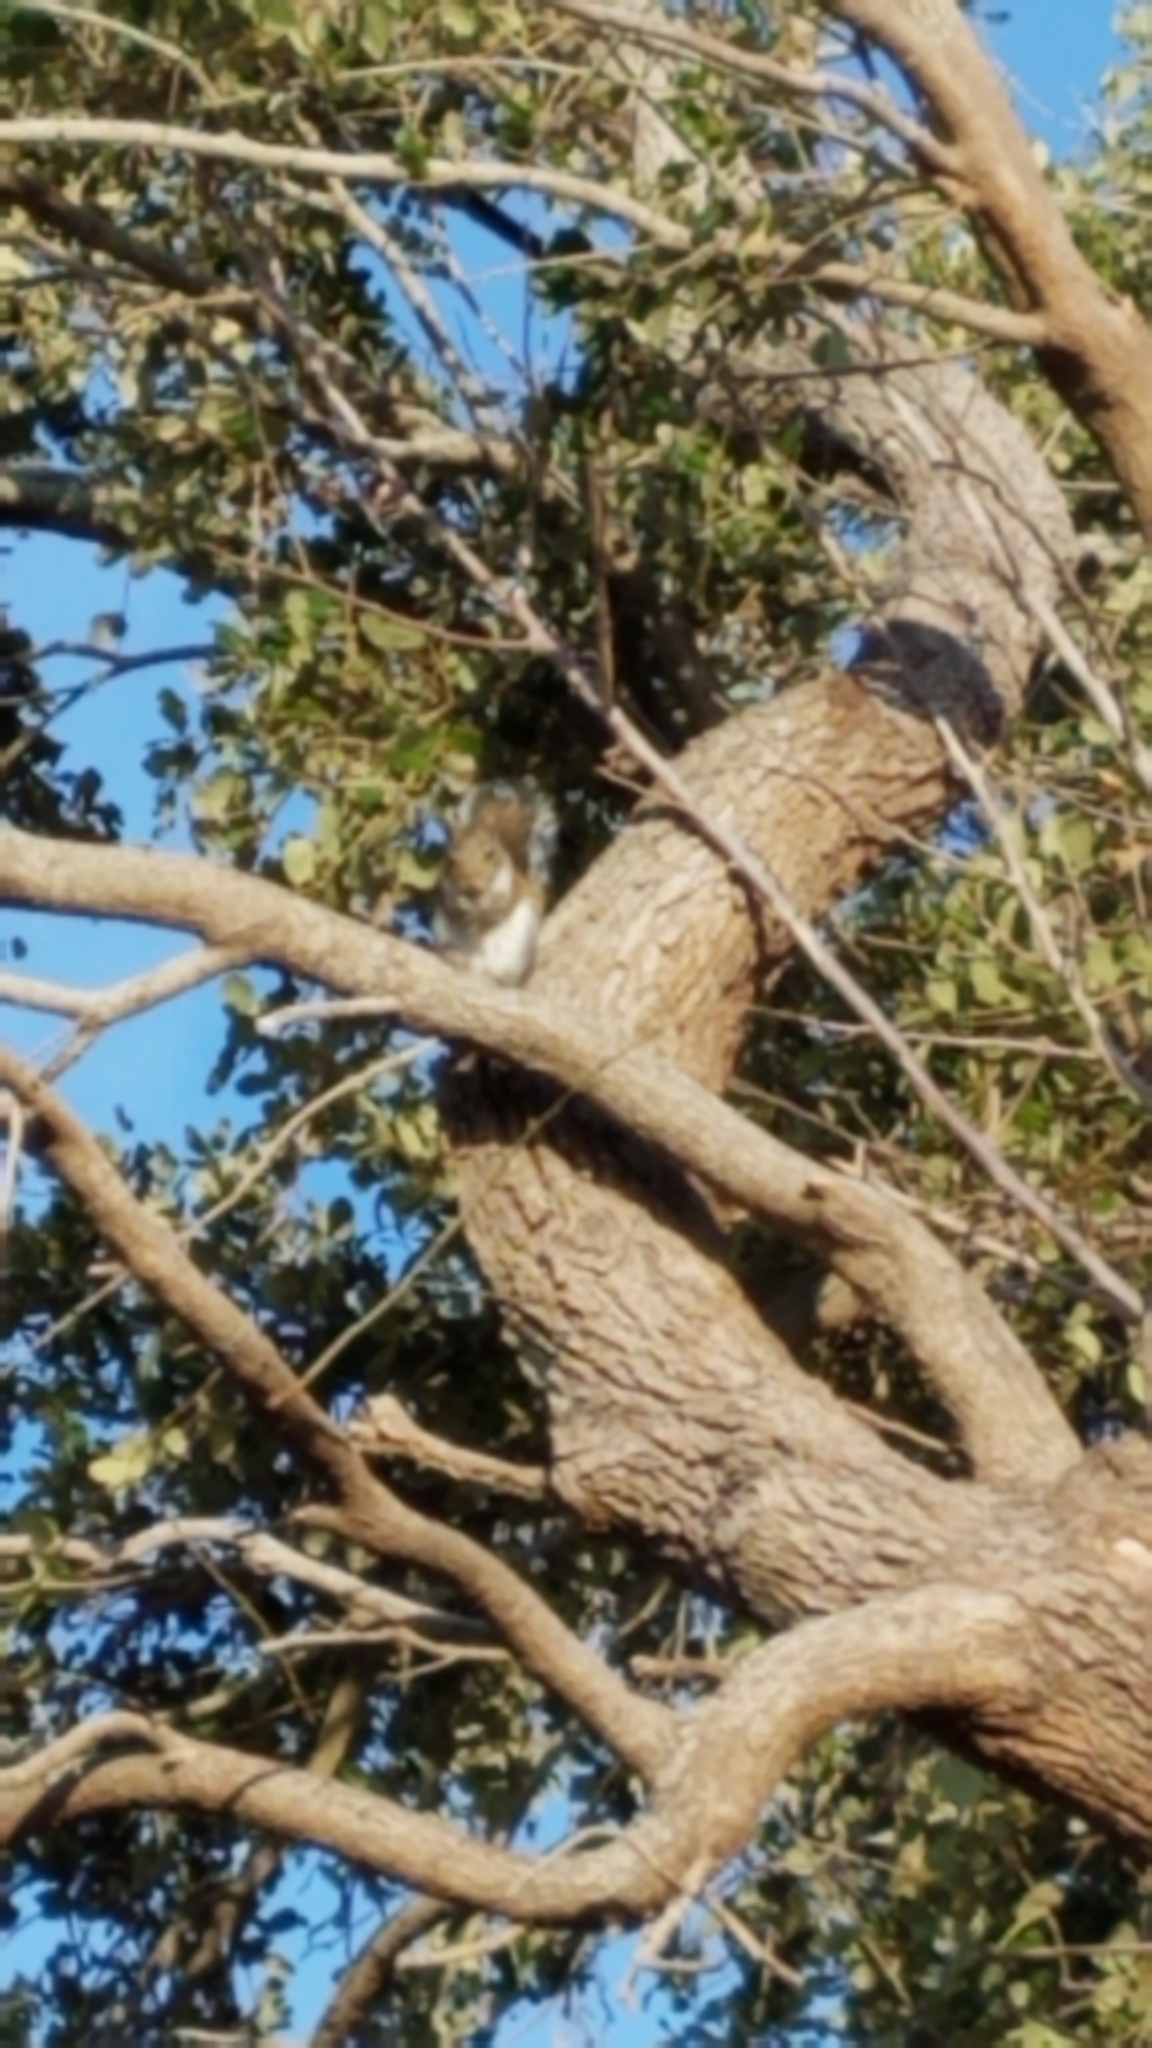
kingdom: Animalia
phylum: Chordata
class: Mammalia
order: Rodentia
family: Sciuridae
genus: Sciurus
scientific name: Sciurus carolinensis
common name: Eastern gray squirrel
